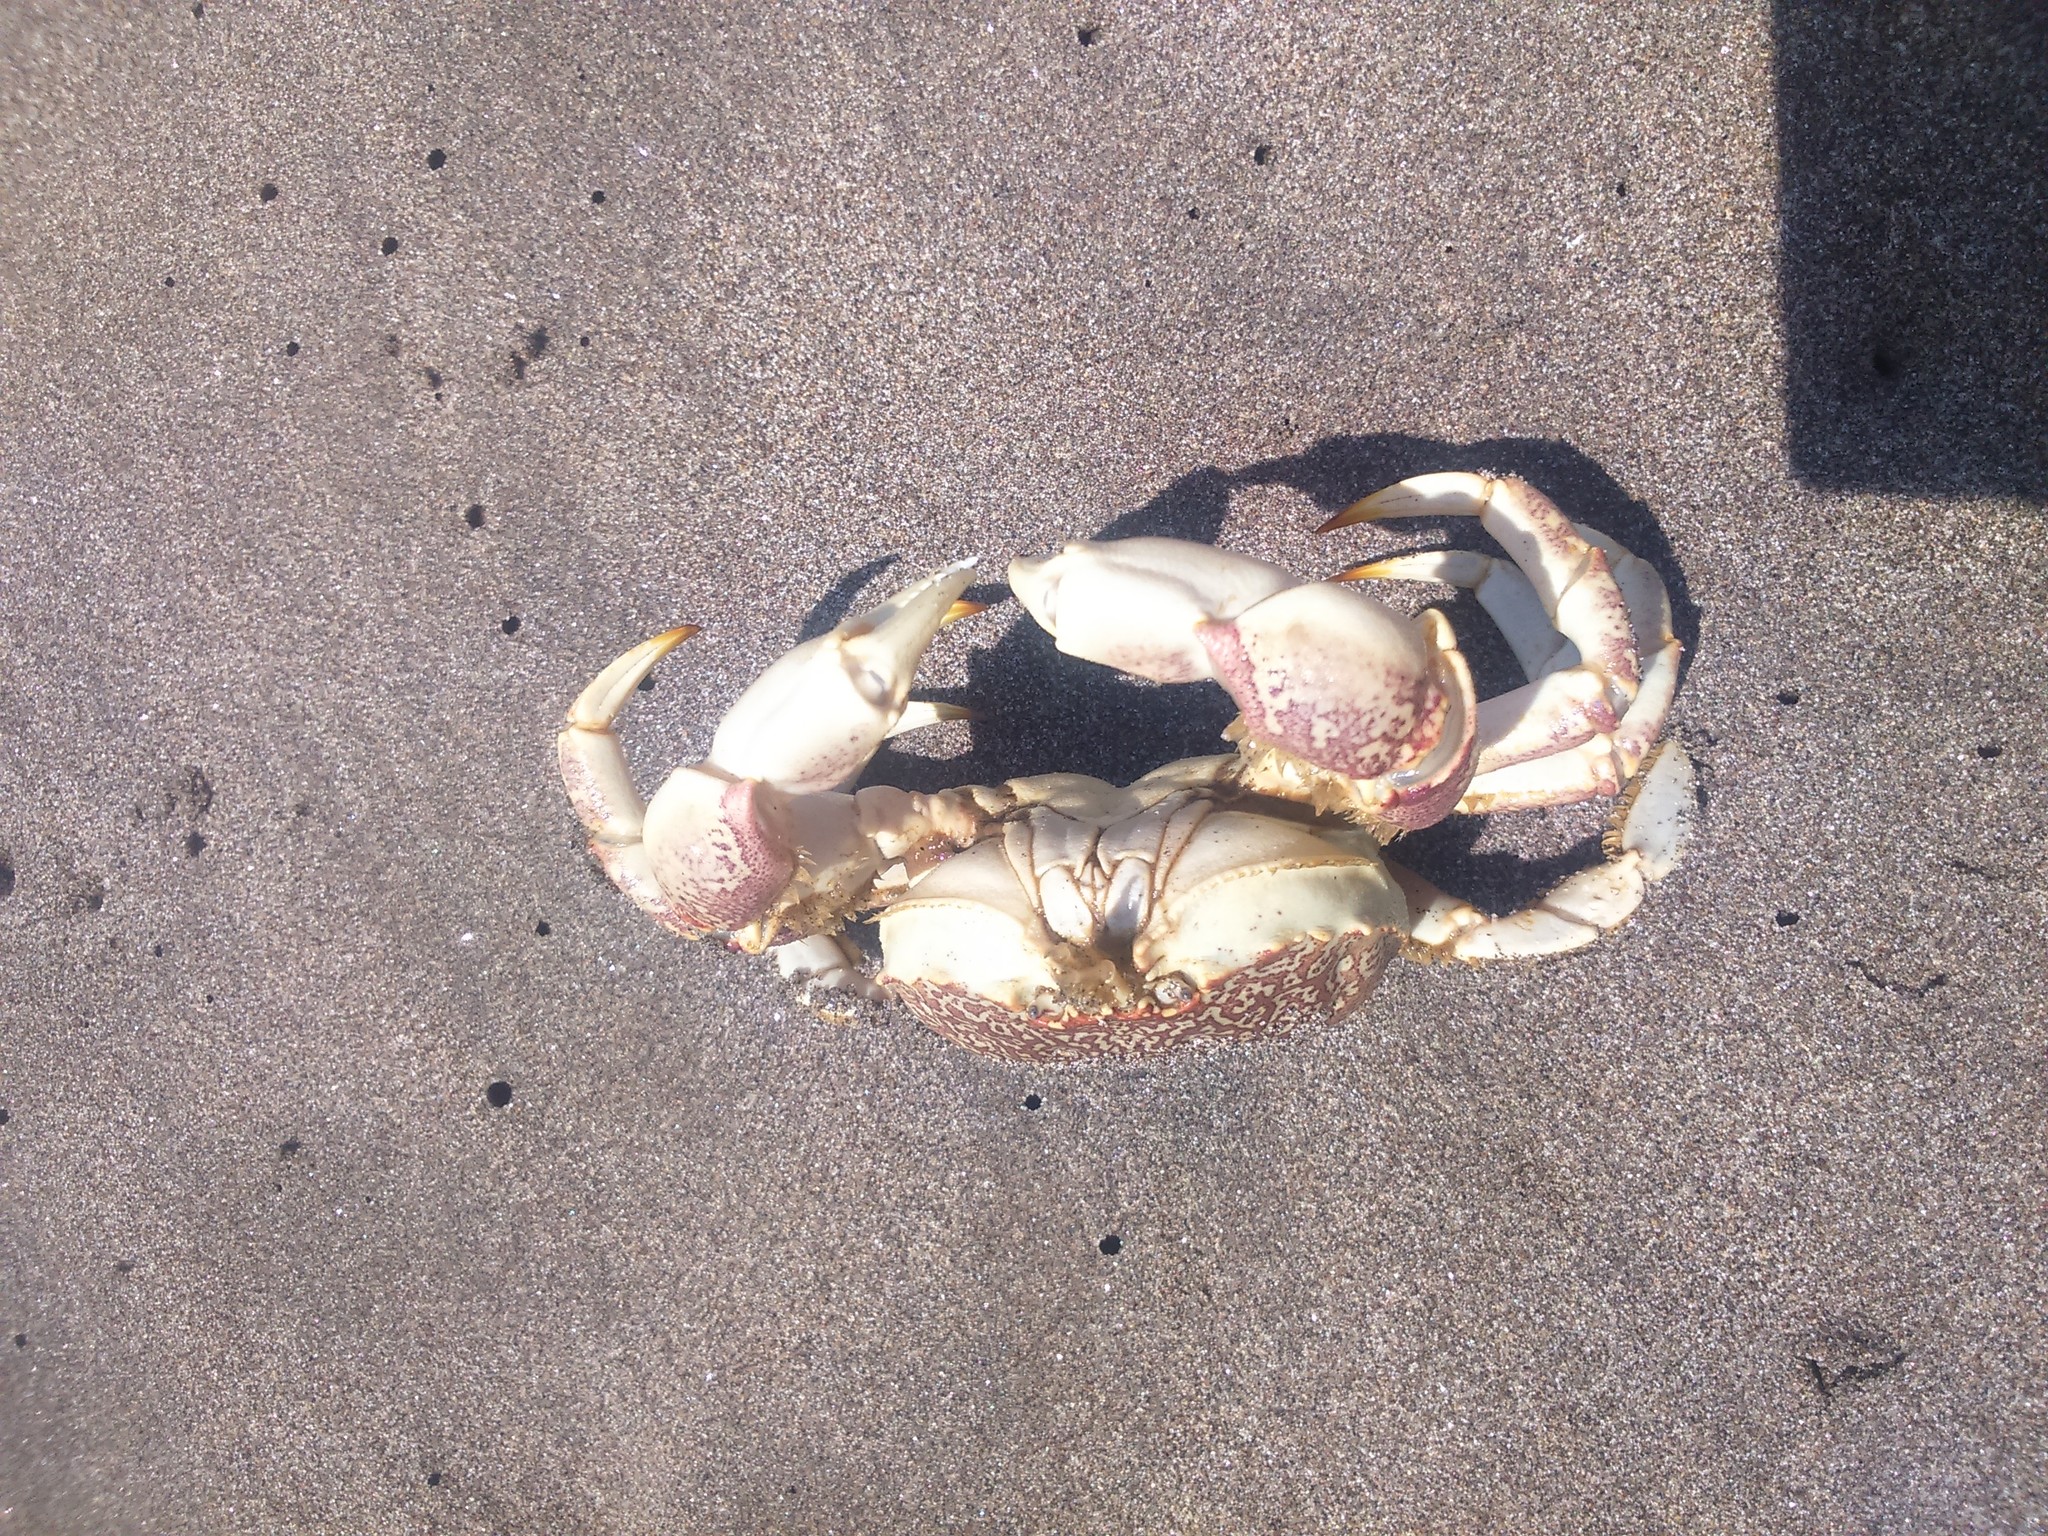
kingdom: Animalia
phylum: Arthropoda
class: Malacostraca
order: Decapoda
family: Belliidae
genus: Bellia
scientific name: Bellia picta
